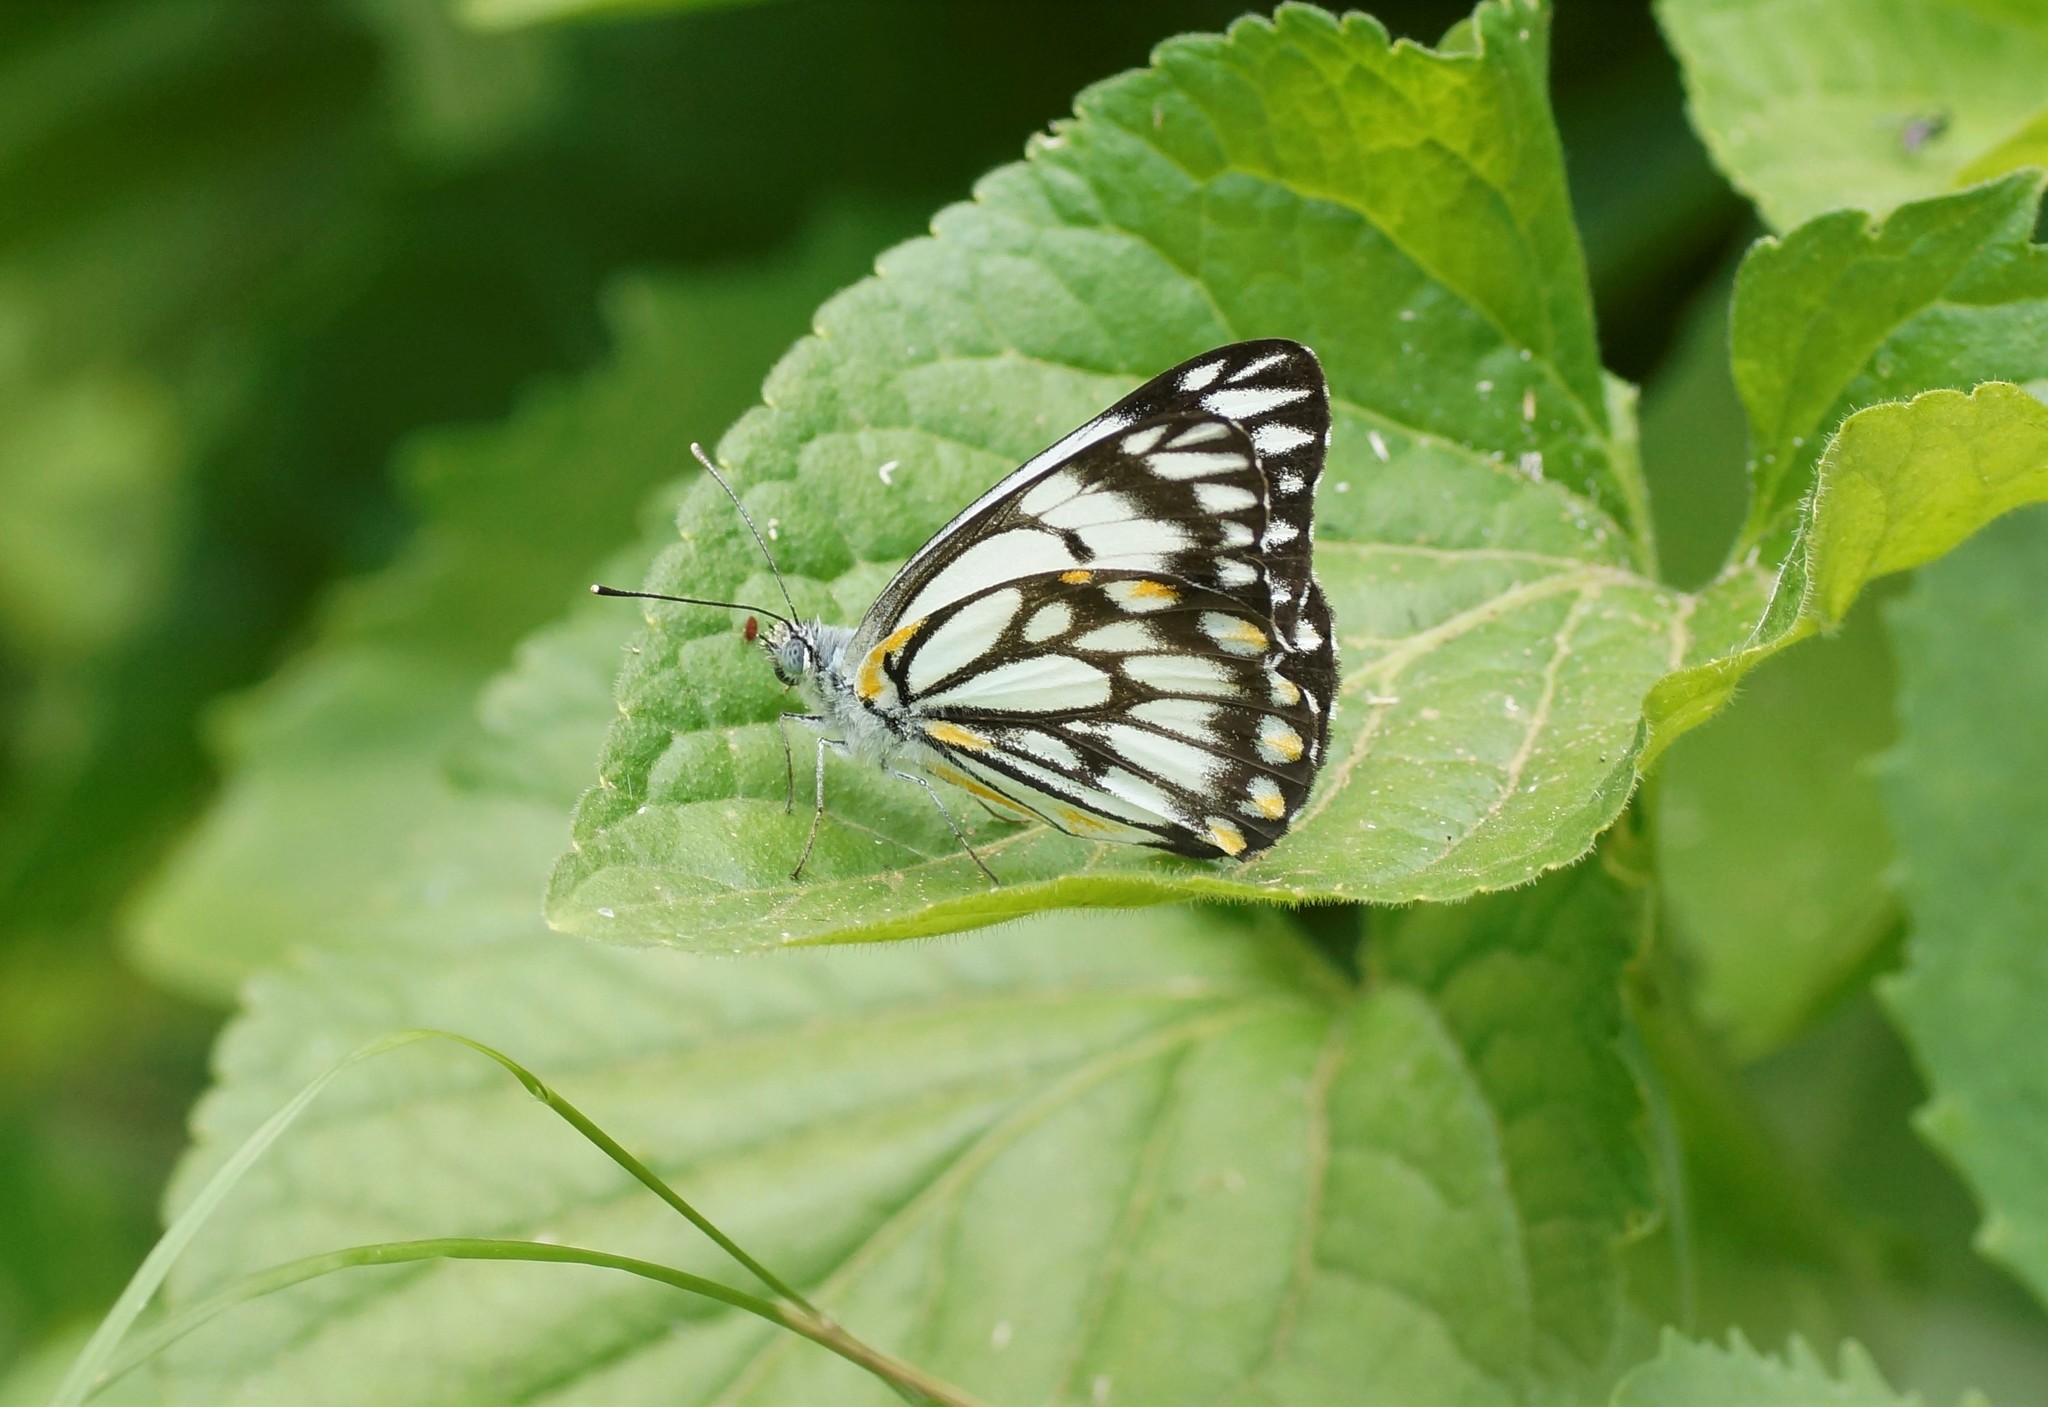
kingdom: Animalia
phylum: Arthropoda
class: Insecta
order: Lepidoptera
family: Pieridae
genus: Belenois
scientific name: Belenois java
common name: Caper white
